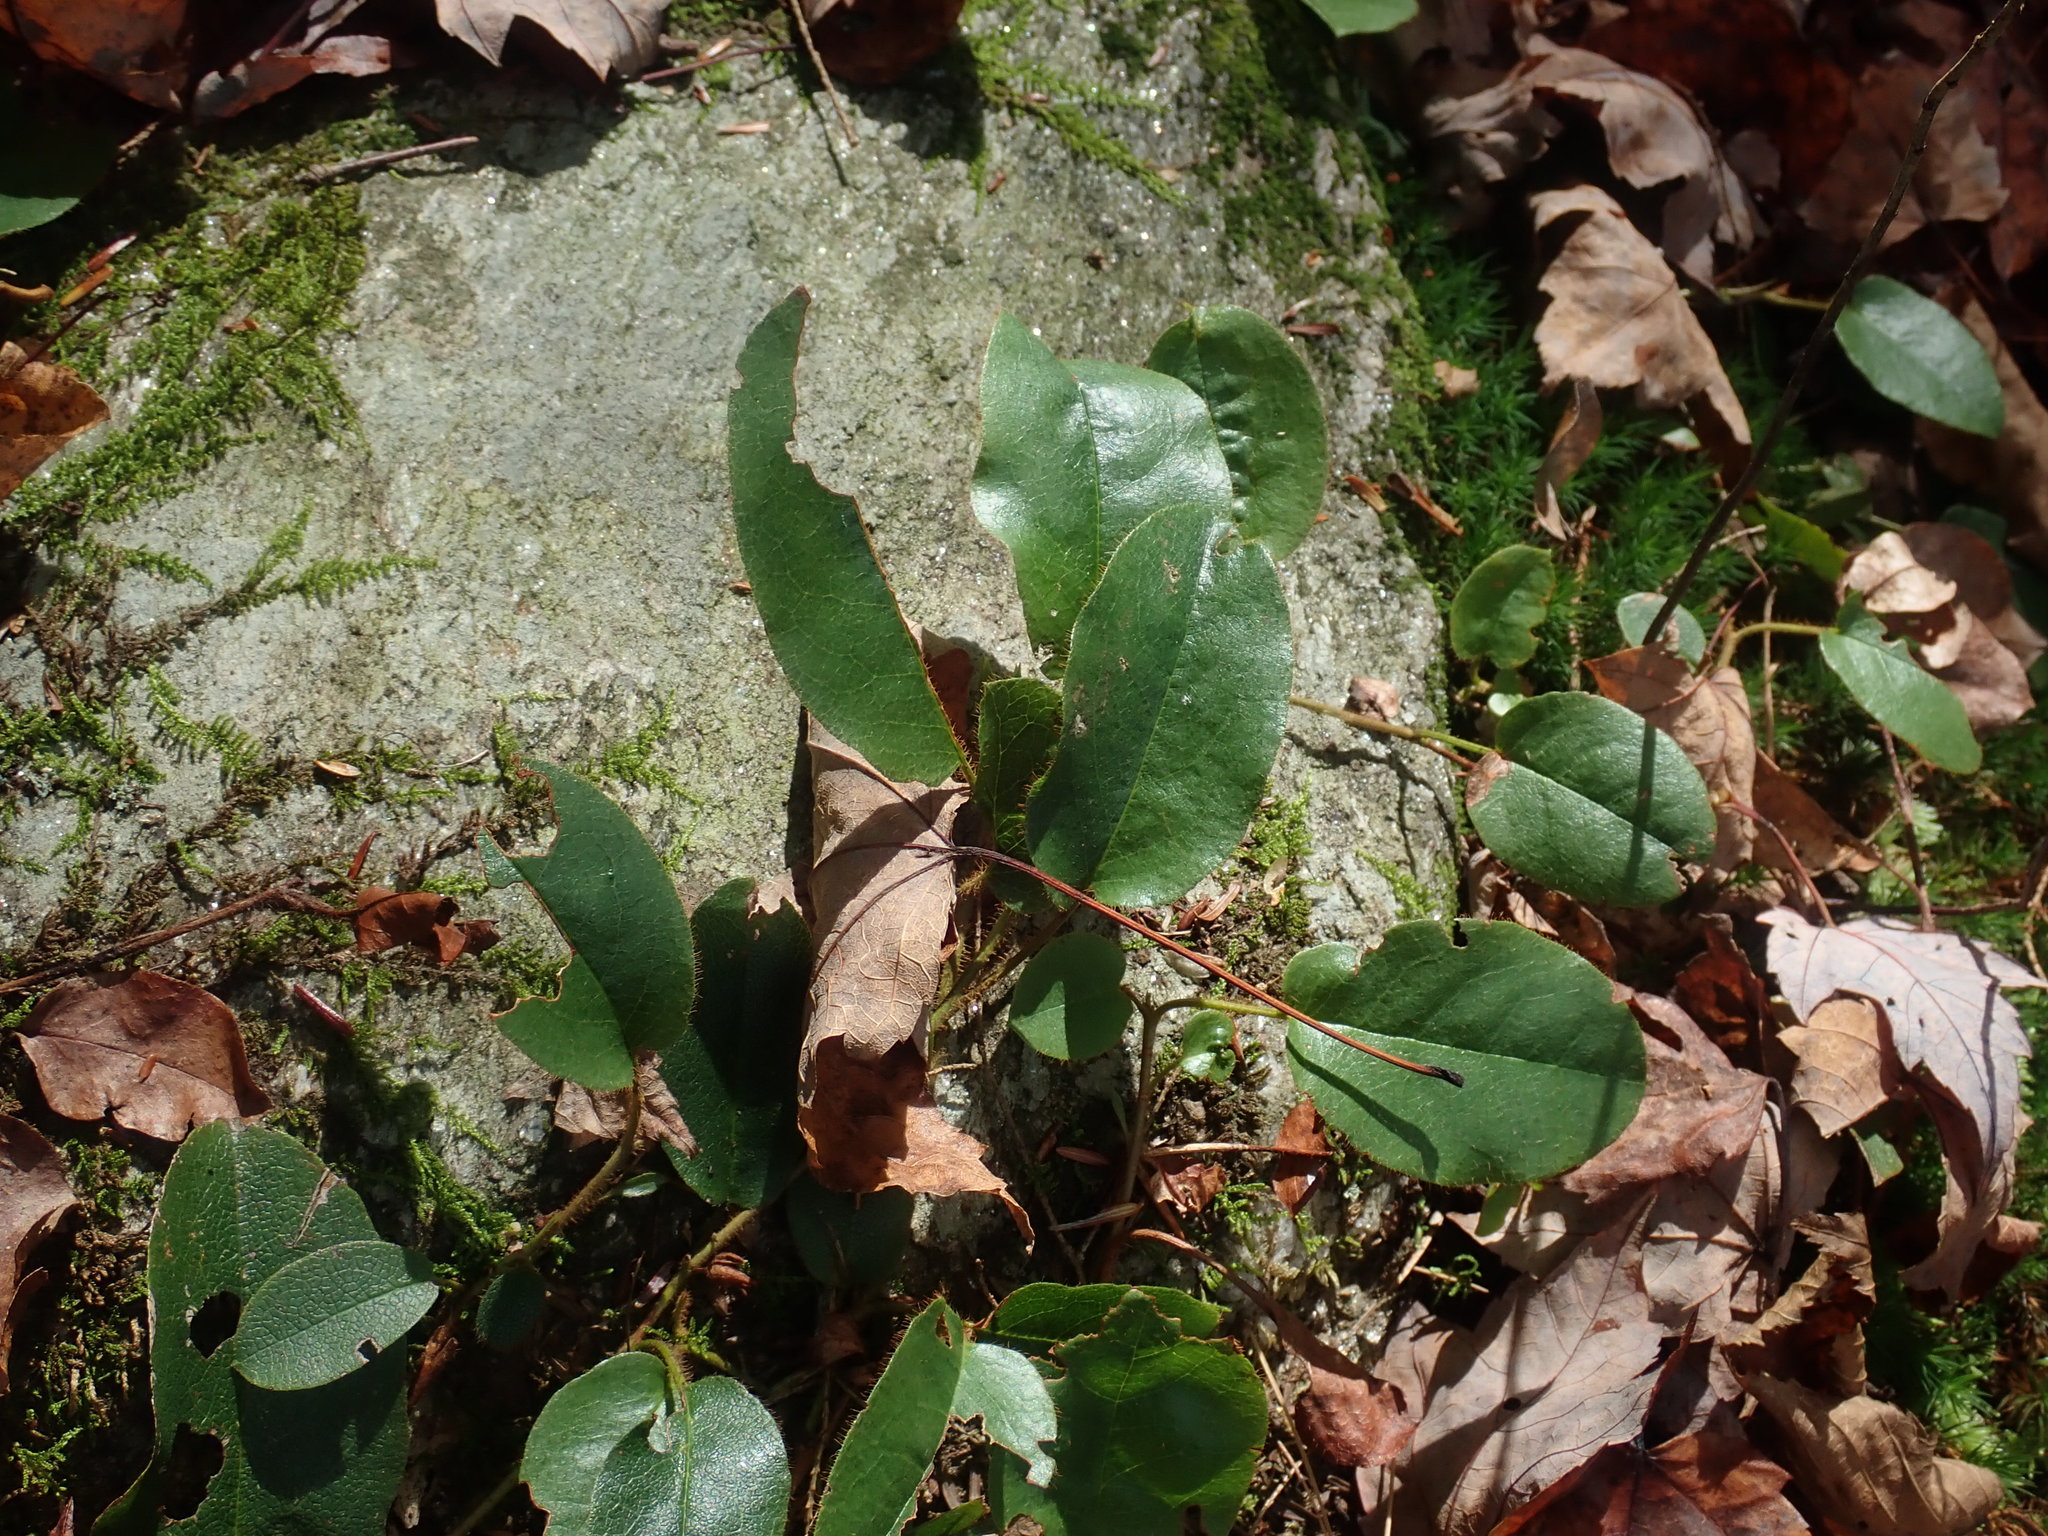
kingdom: Plantae
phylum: Tracheophyta
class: Magnoliopsida
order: Ericales
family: Ericaceae
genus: Epigaea
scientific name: Epigaea repens
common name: Gravelroot
